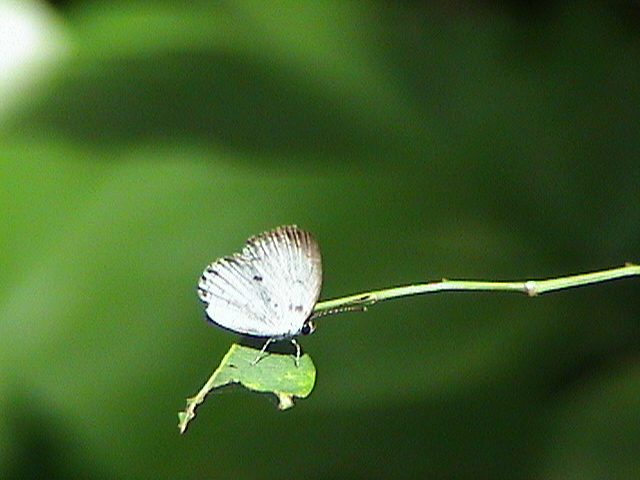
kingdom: Animalia
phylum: Arthropoda
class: Insecta
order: Lepidoptera
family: Lycaenidae
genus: Neopithecops
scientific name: Neopithecops zalmora
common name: Quaker
